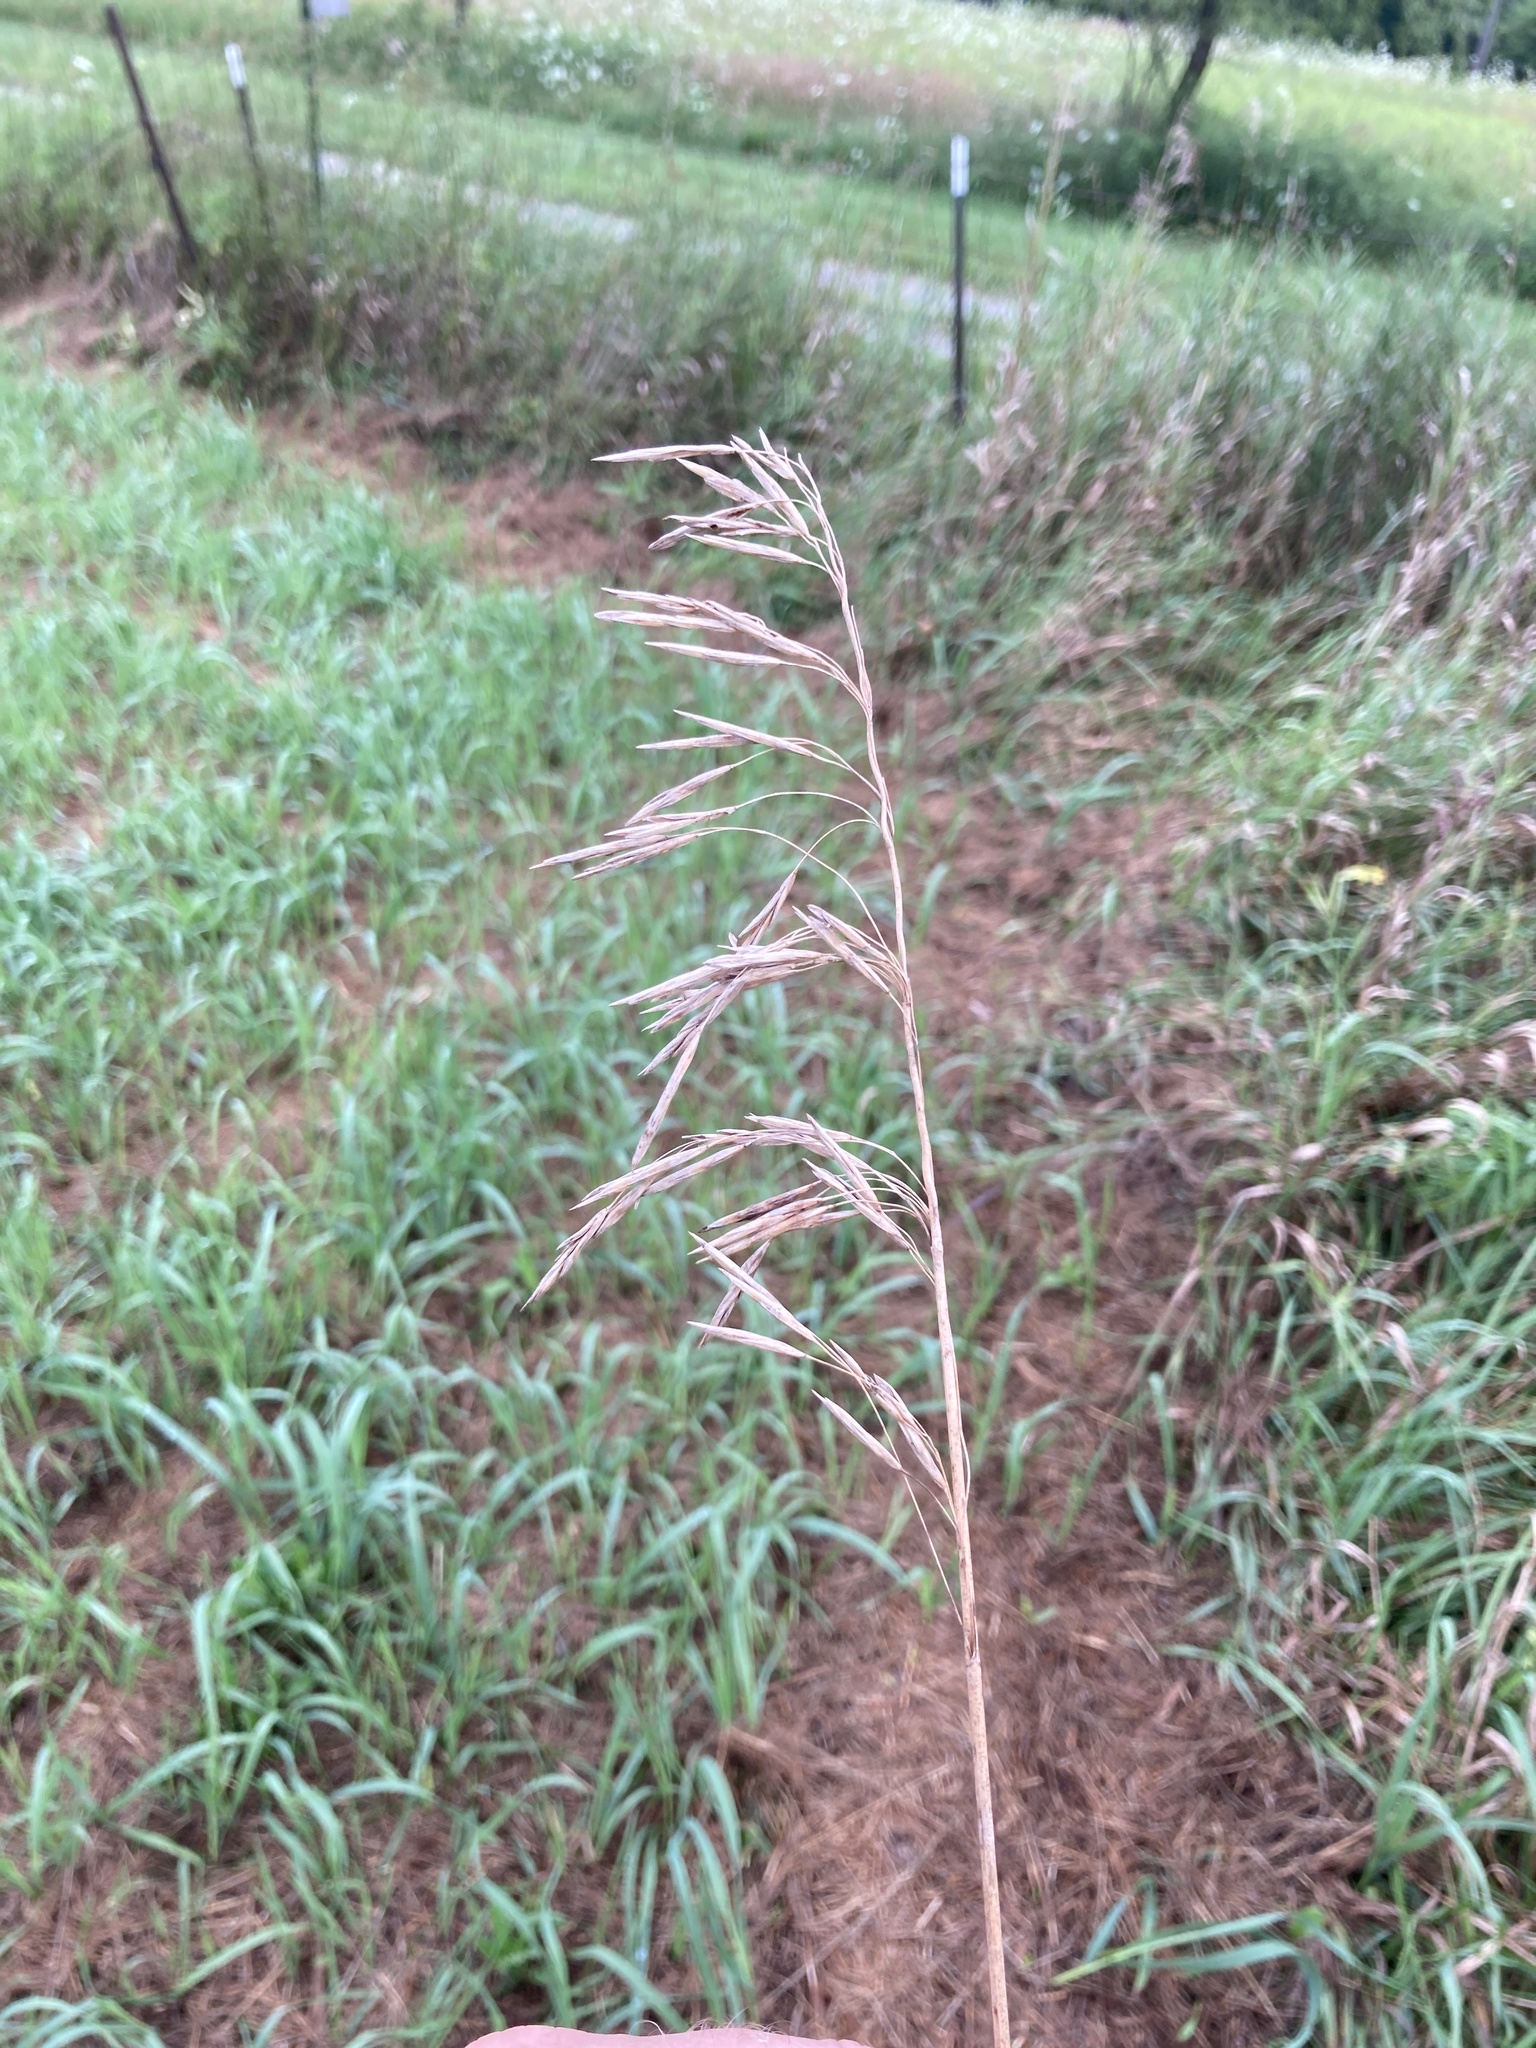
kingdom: Plantae
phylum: Tracheophyta
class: Liliopsida
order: Poales
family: Poaceae
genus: Bromus
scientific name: Bromus inermis
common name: Smooth brome
